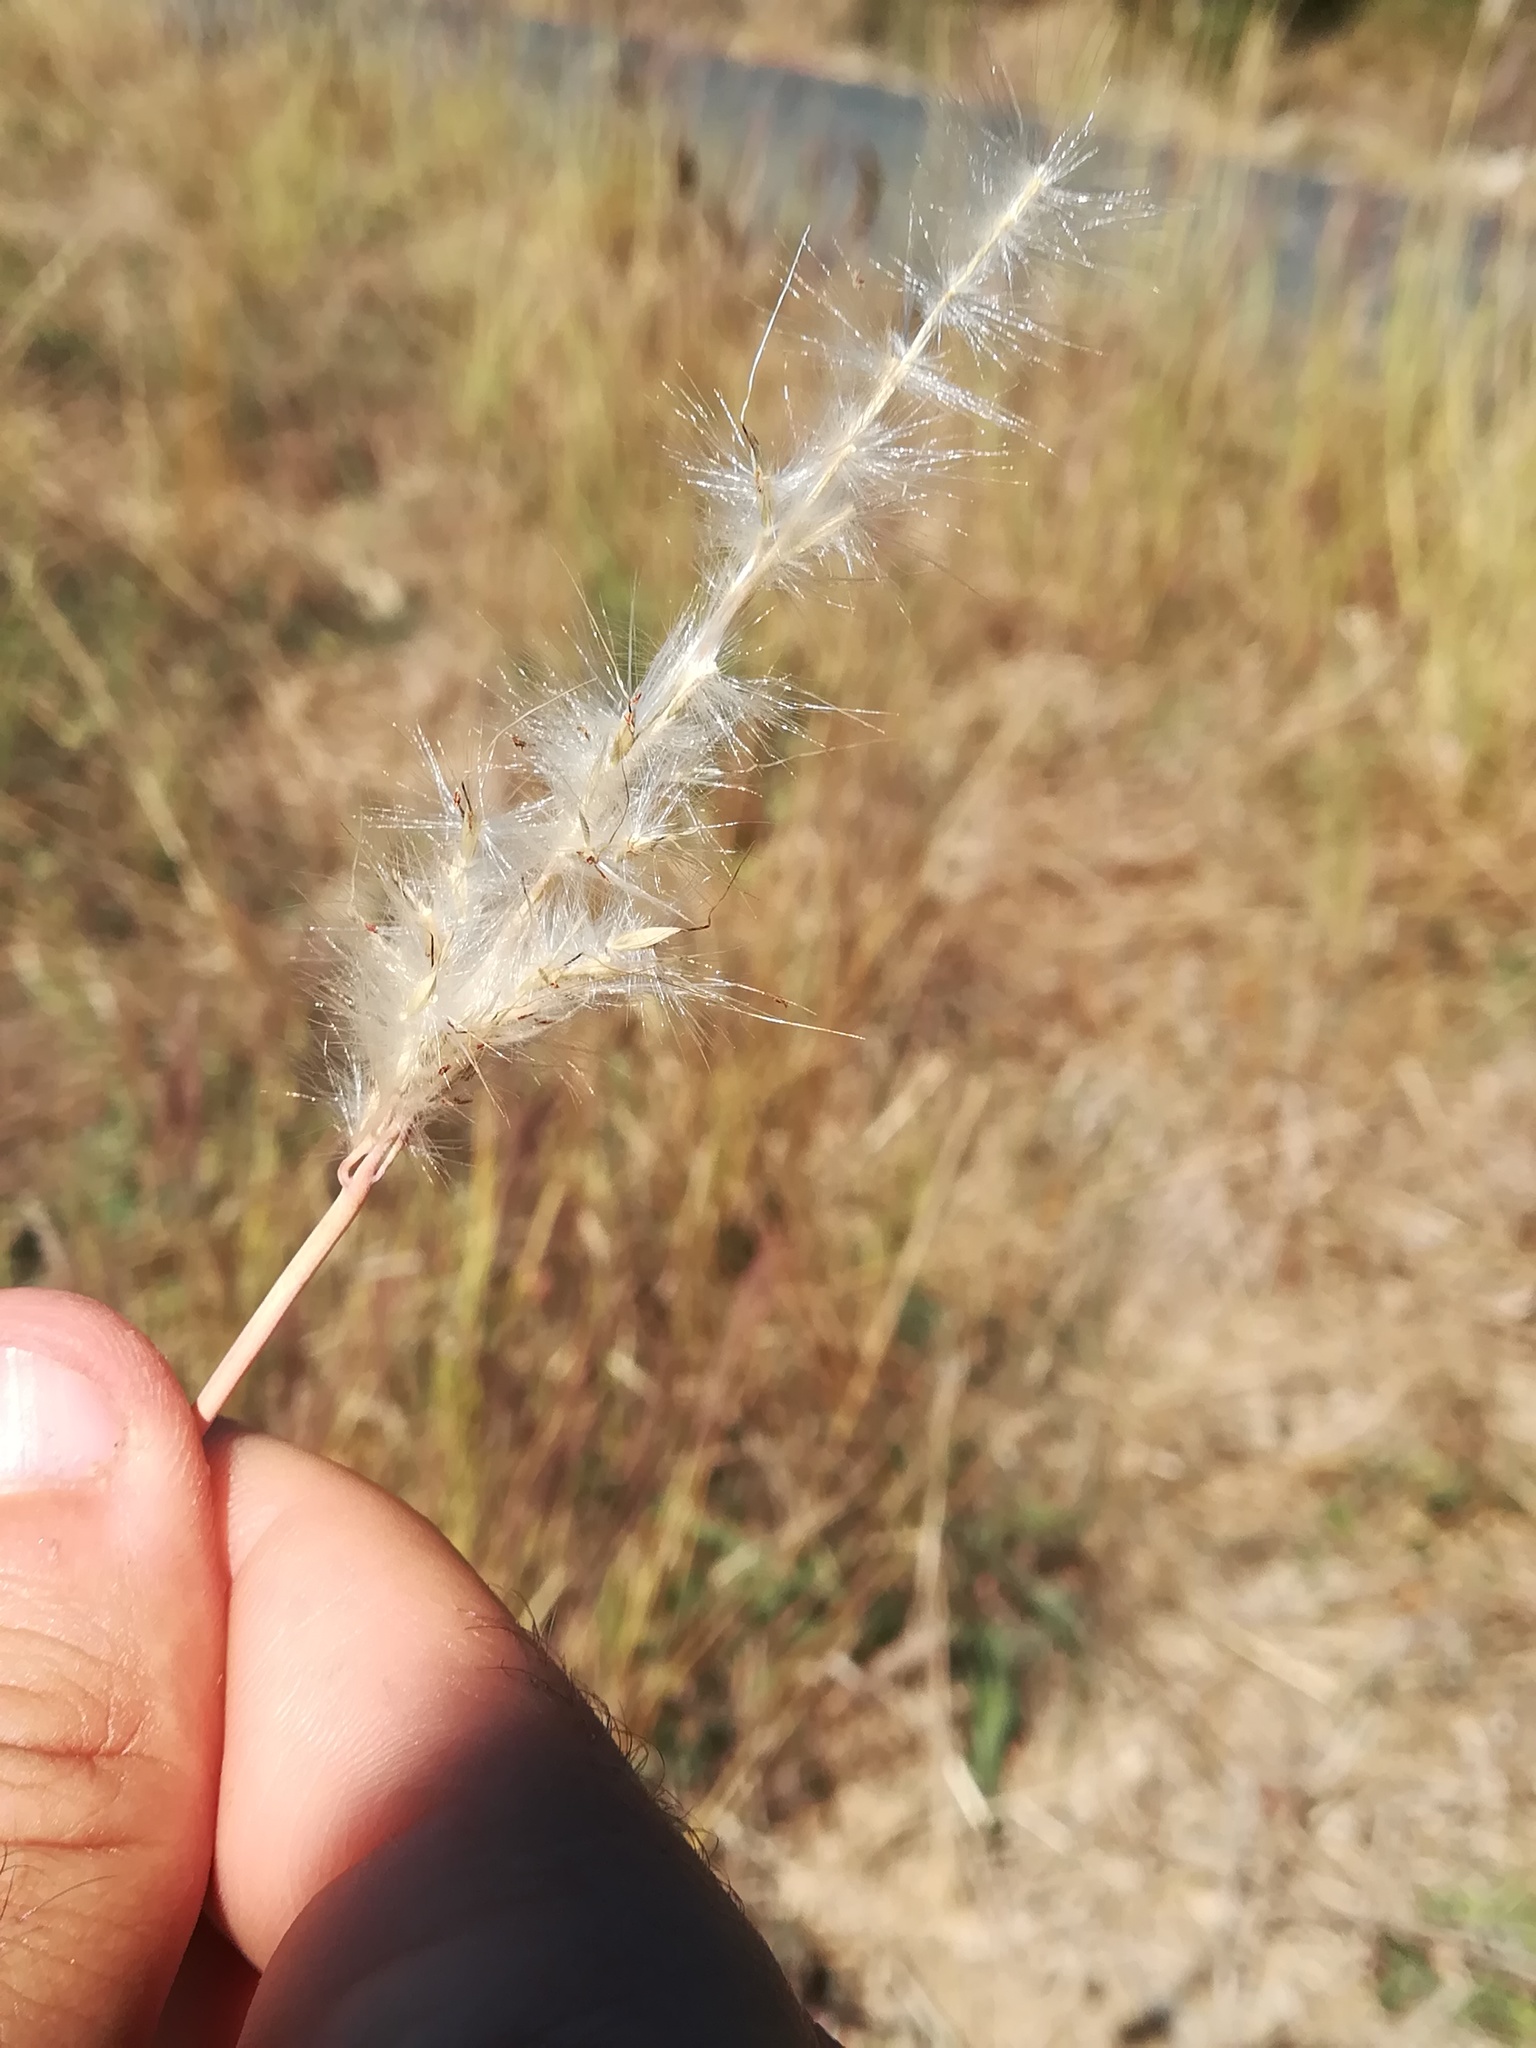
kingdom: Plantae
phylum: Tracheophyta
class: Liliopsida
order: Poales
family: Poaceae
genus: Bothriochloa
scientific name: Bothriochloa barbinodis
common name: Cane bluestem
